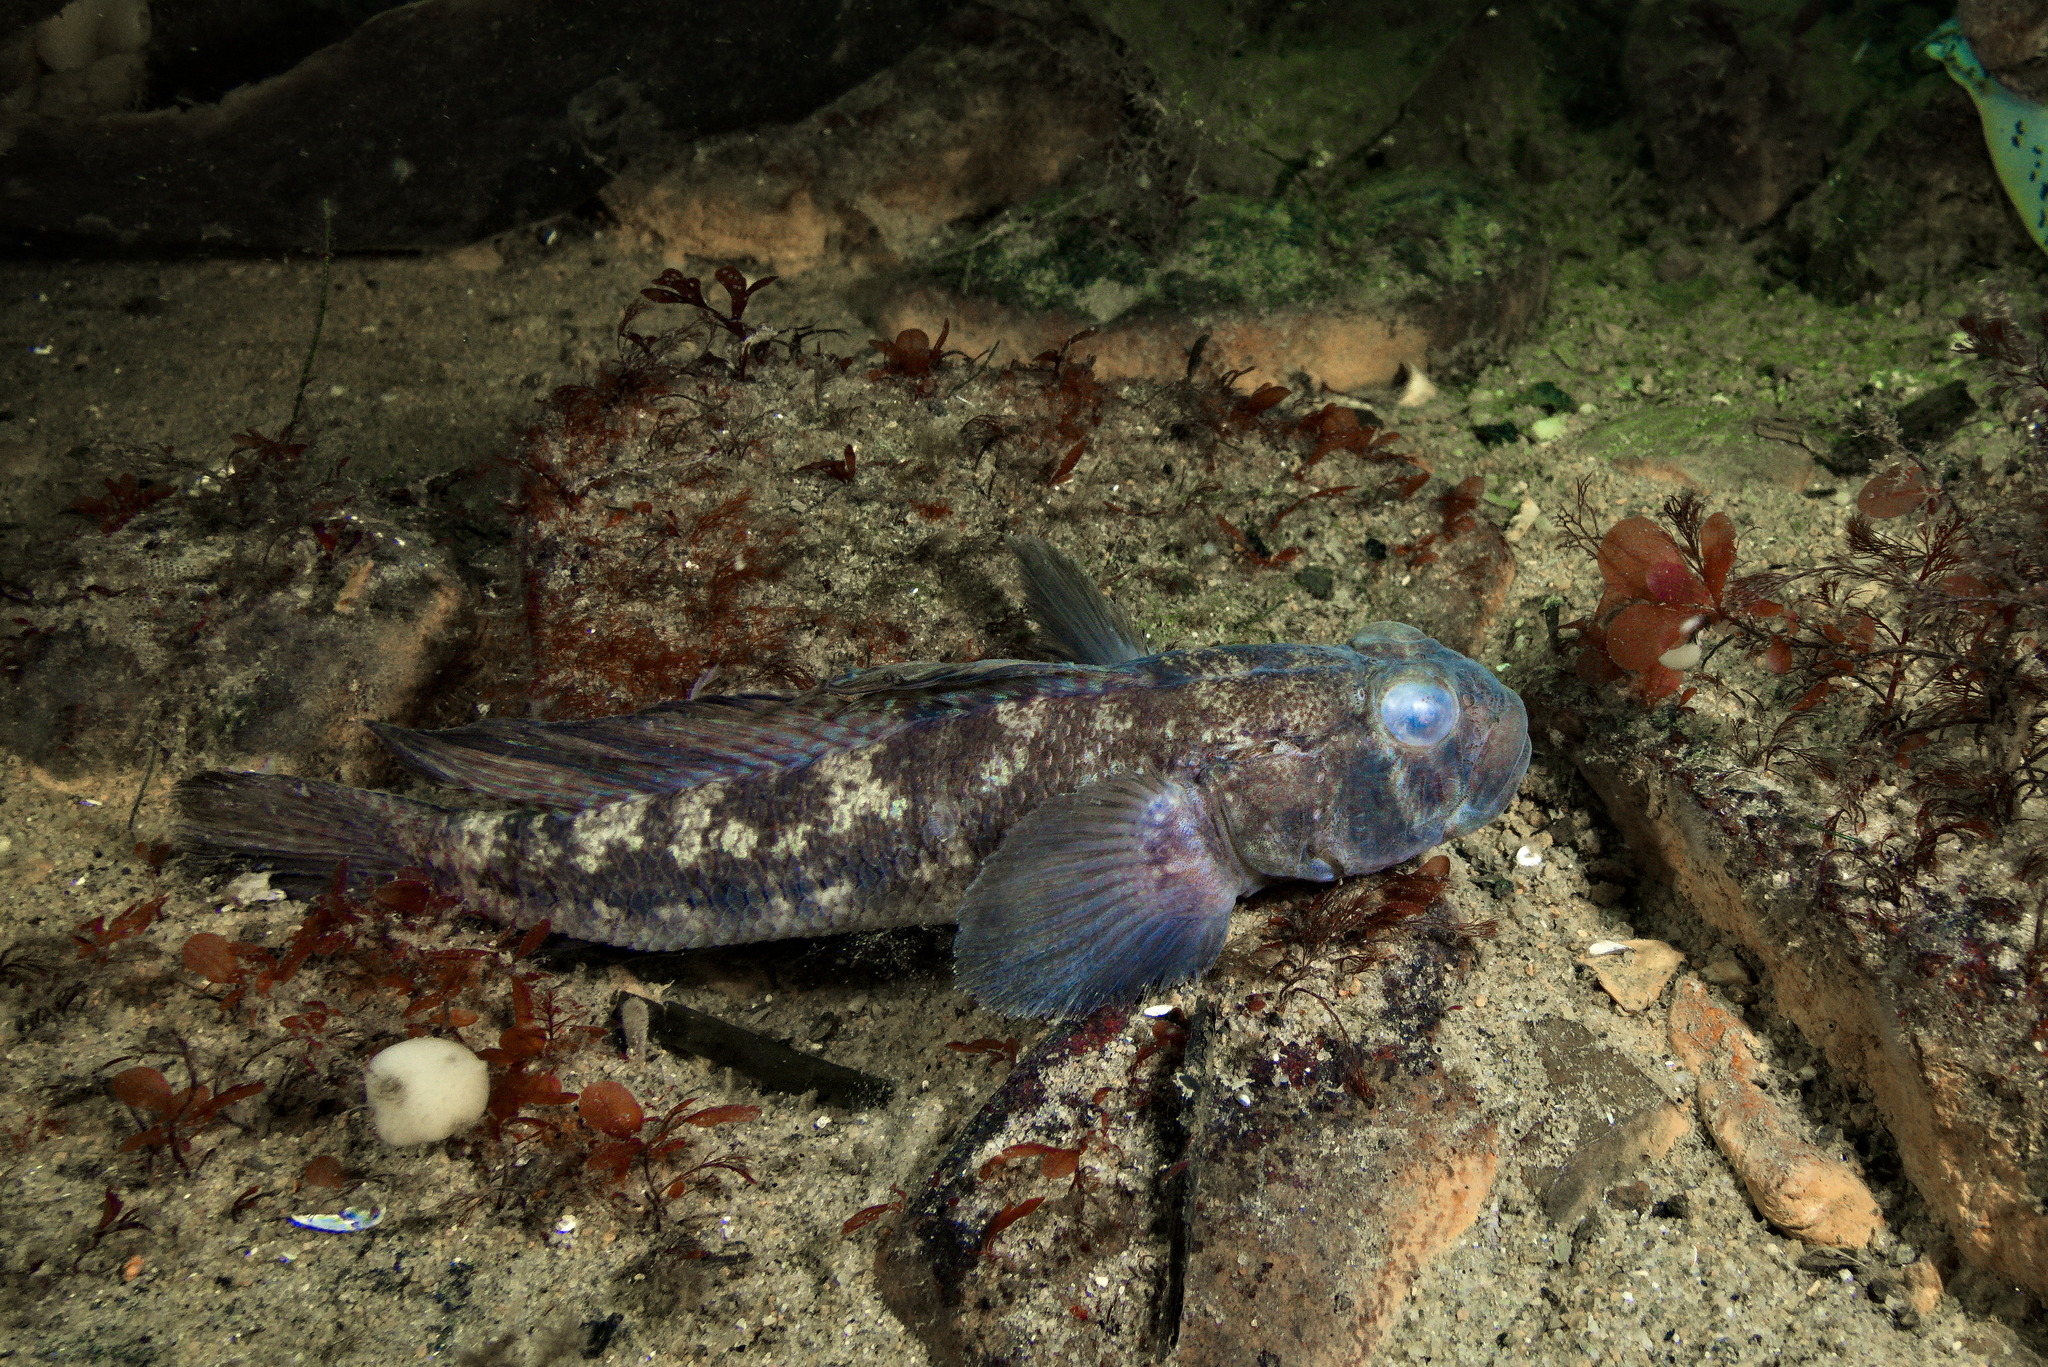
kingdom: Animalia
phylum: Chordata
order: Perciformes
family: Gobiidae
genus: Gobius
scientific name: Gobius niger
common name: Black goby
